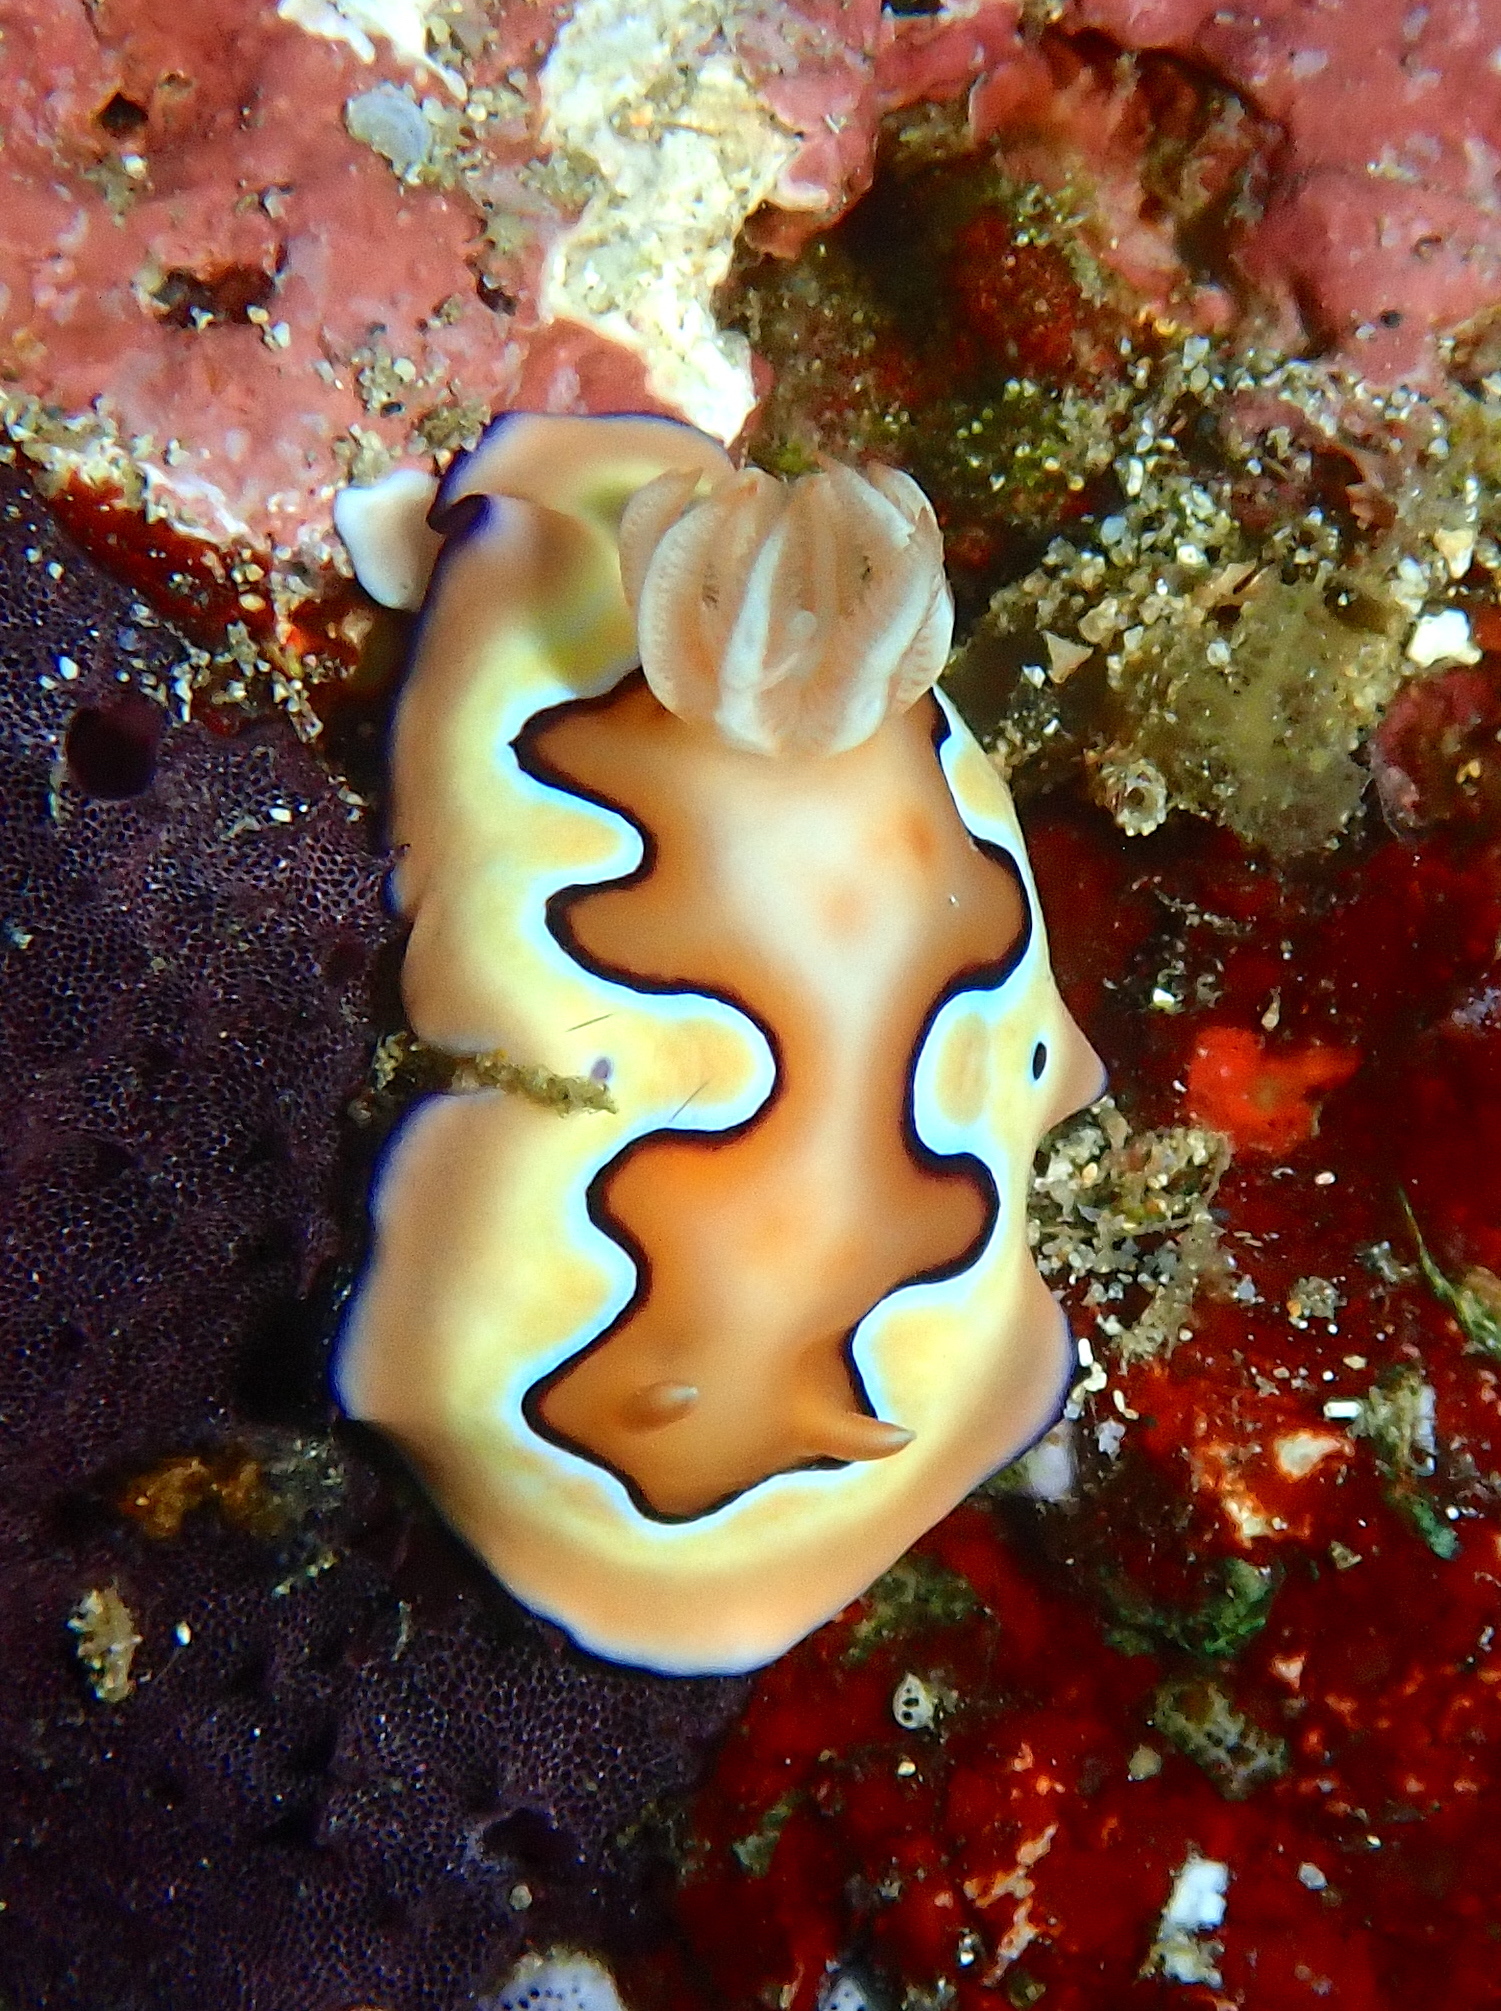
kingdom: Animalia
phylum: Mollusca
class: Gastropoda
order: Nudibranchia
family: Chromodorididae
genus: Goniobranchus
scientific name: Goniobranchus coi
